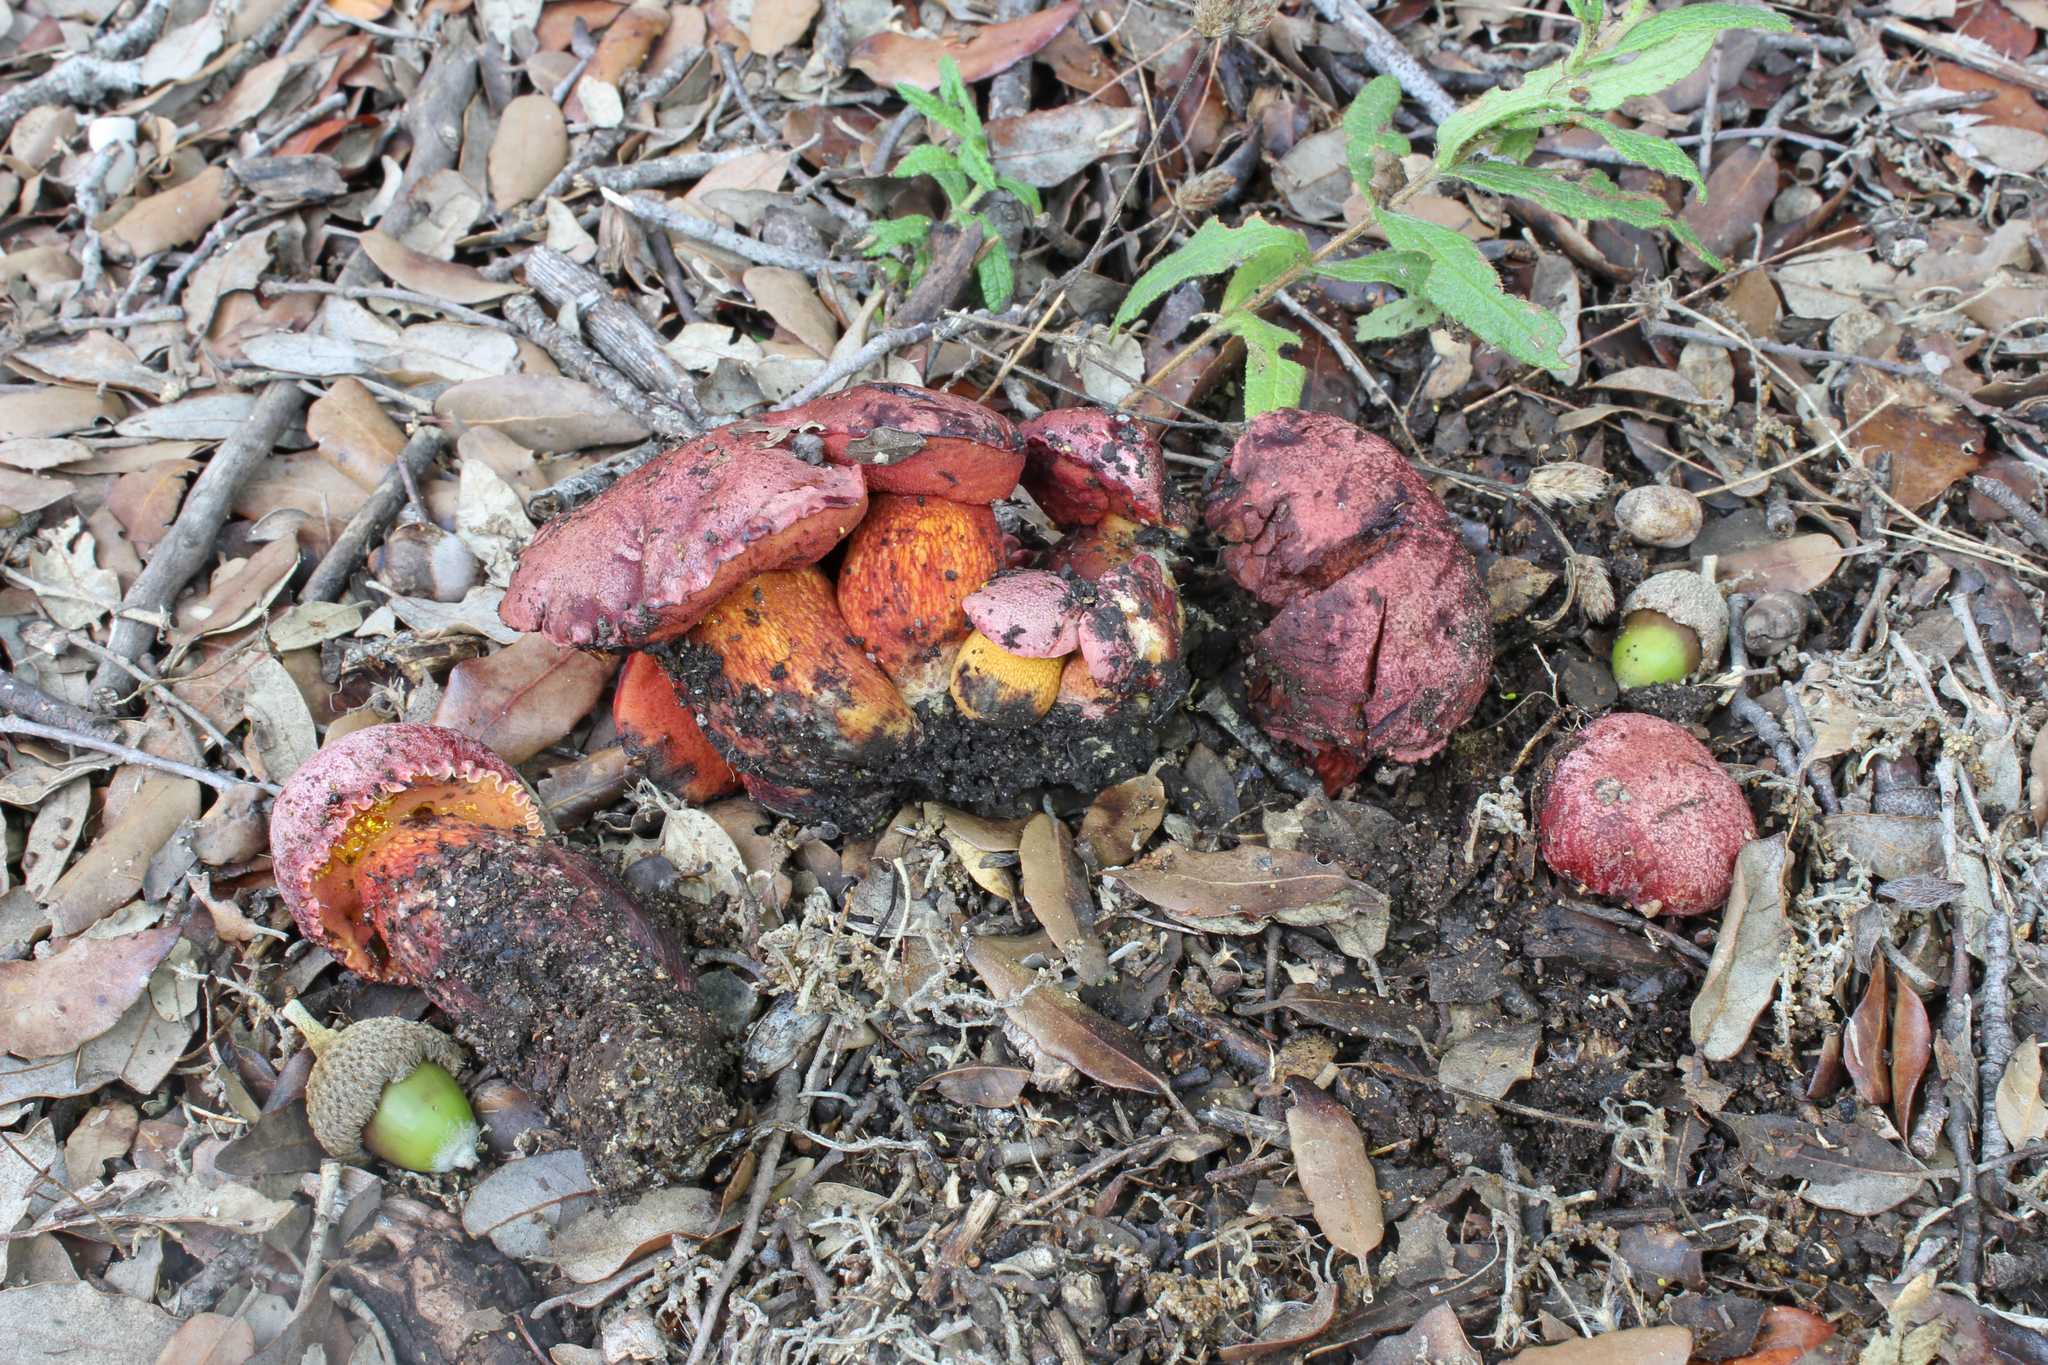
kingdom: Fungi
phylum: Basidiomycota
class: Agaricomycetes
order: Boletales
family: Boletaceae
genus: Suillellus
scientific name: Suillellus permagnificus
